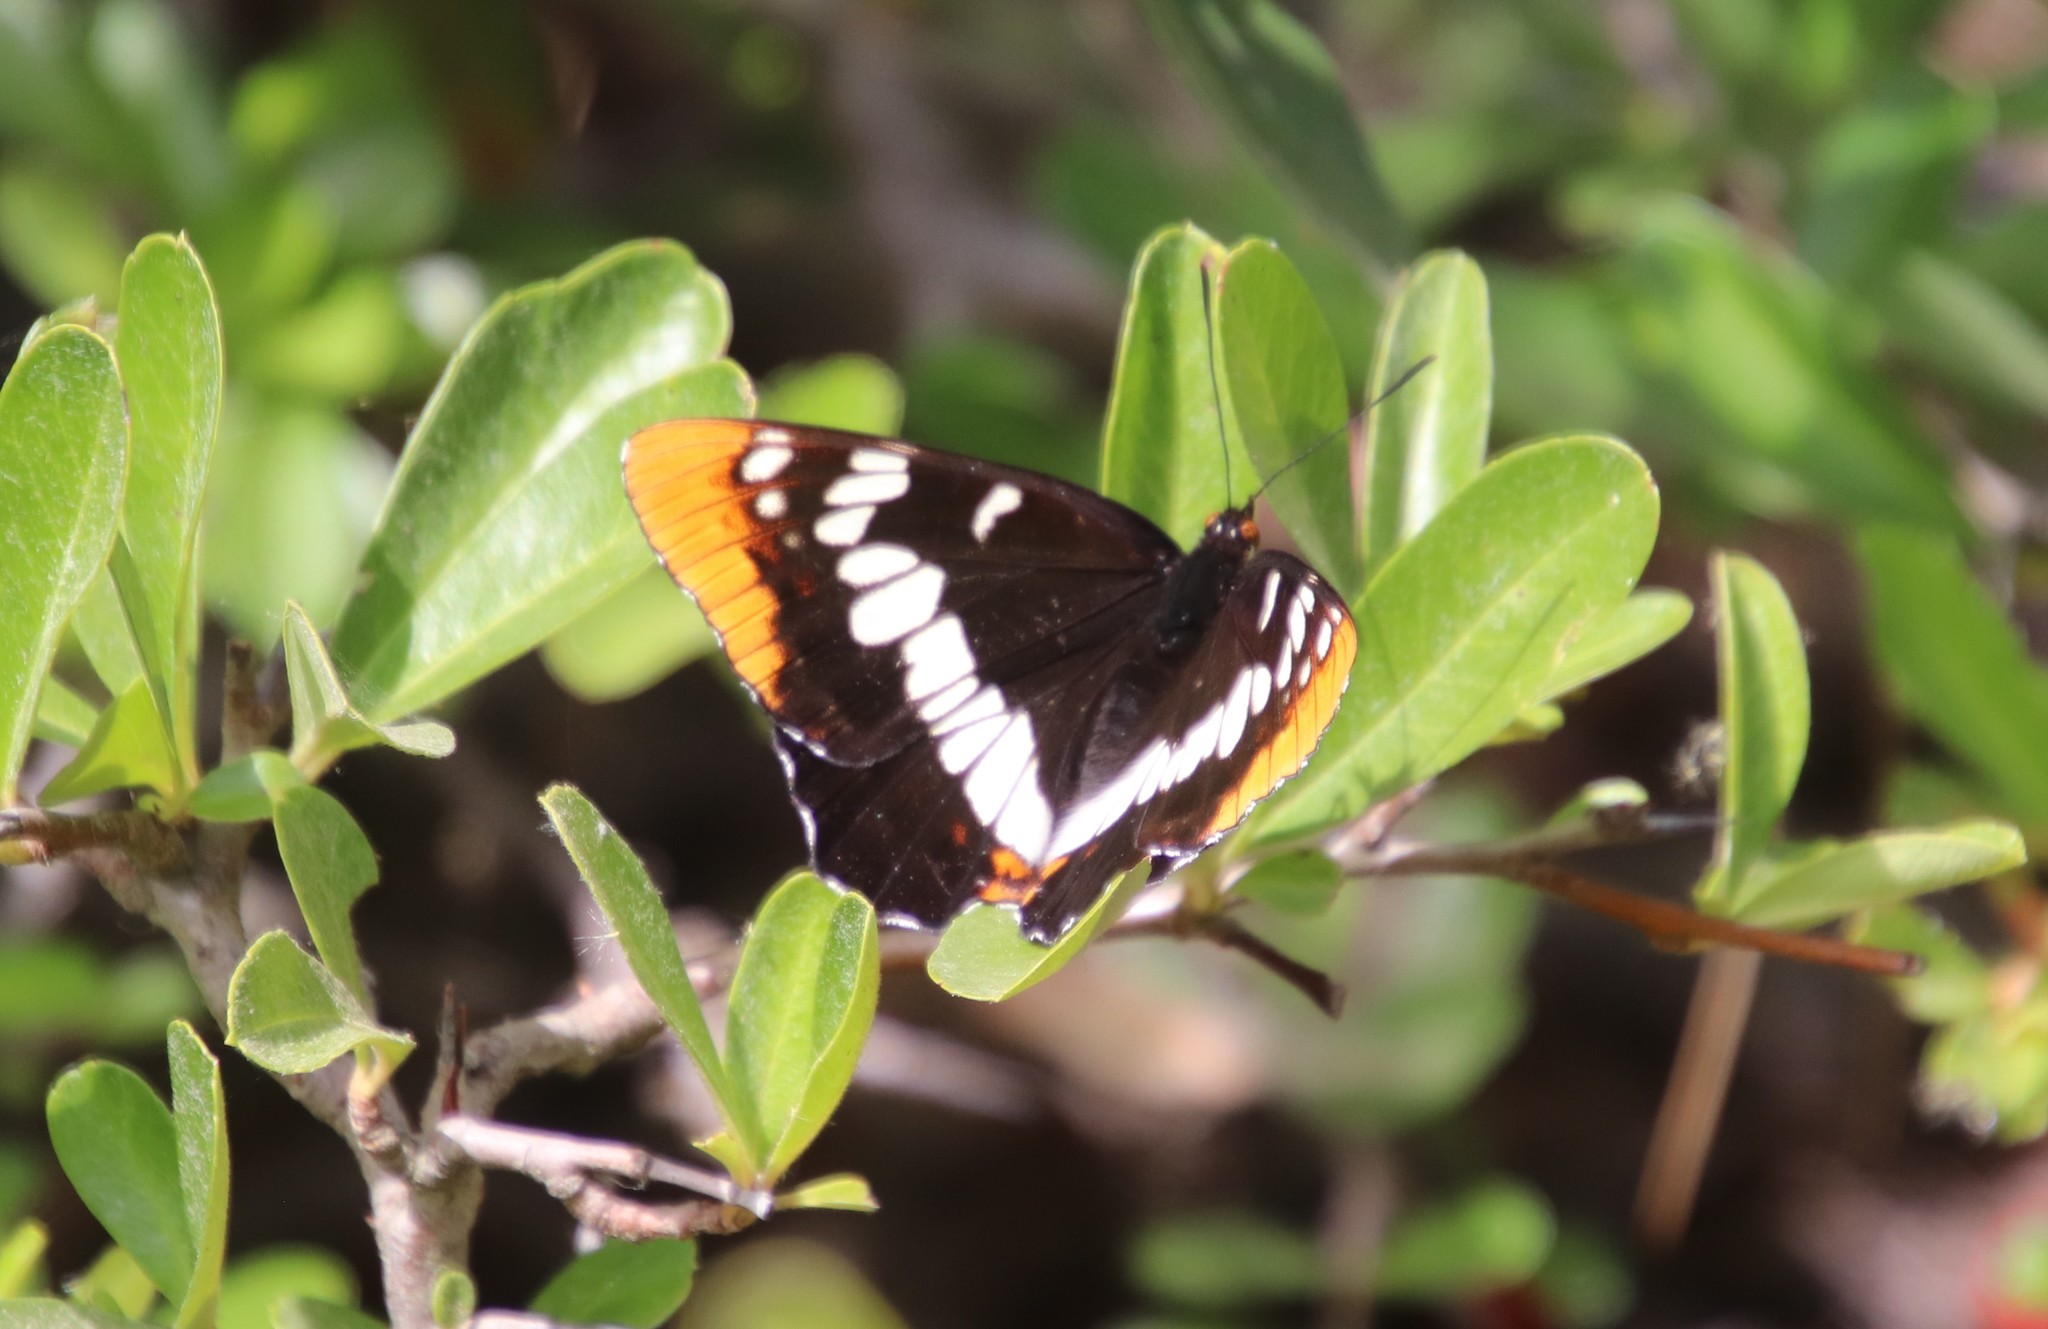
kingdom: Animalia
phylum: Arthropoda
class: Insecta
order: Lepidoptera
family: Nymphalidae
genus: Limenitis
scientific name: Limenitis lorquini
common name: Lorquin's admiral
